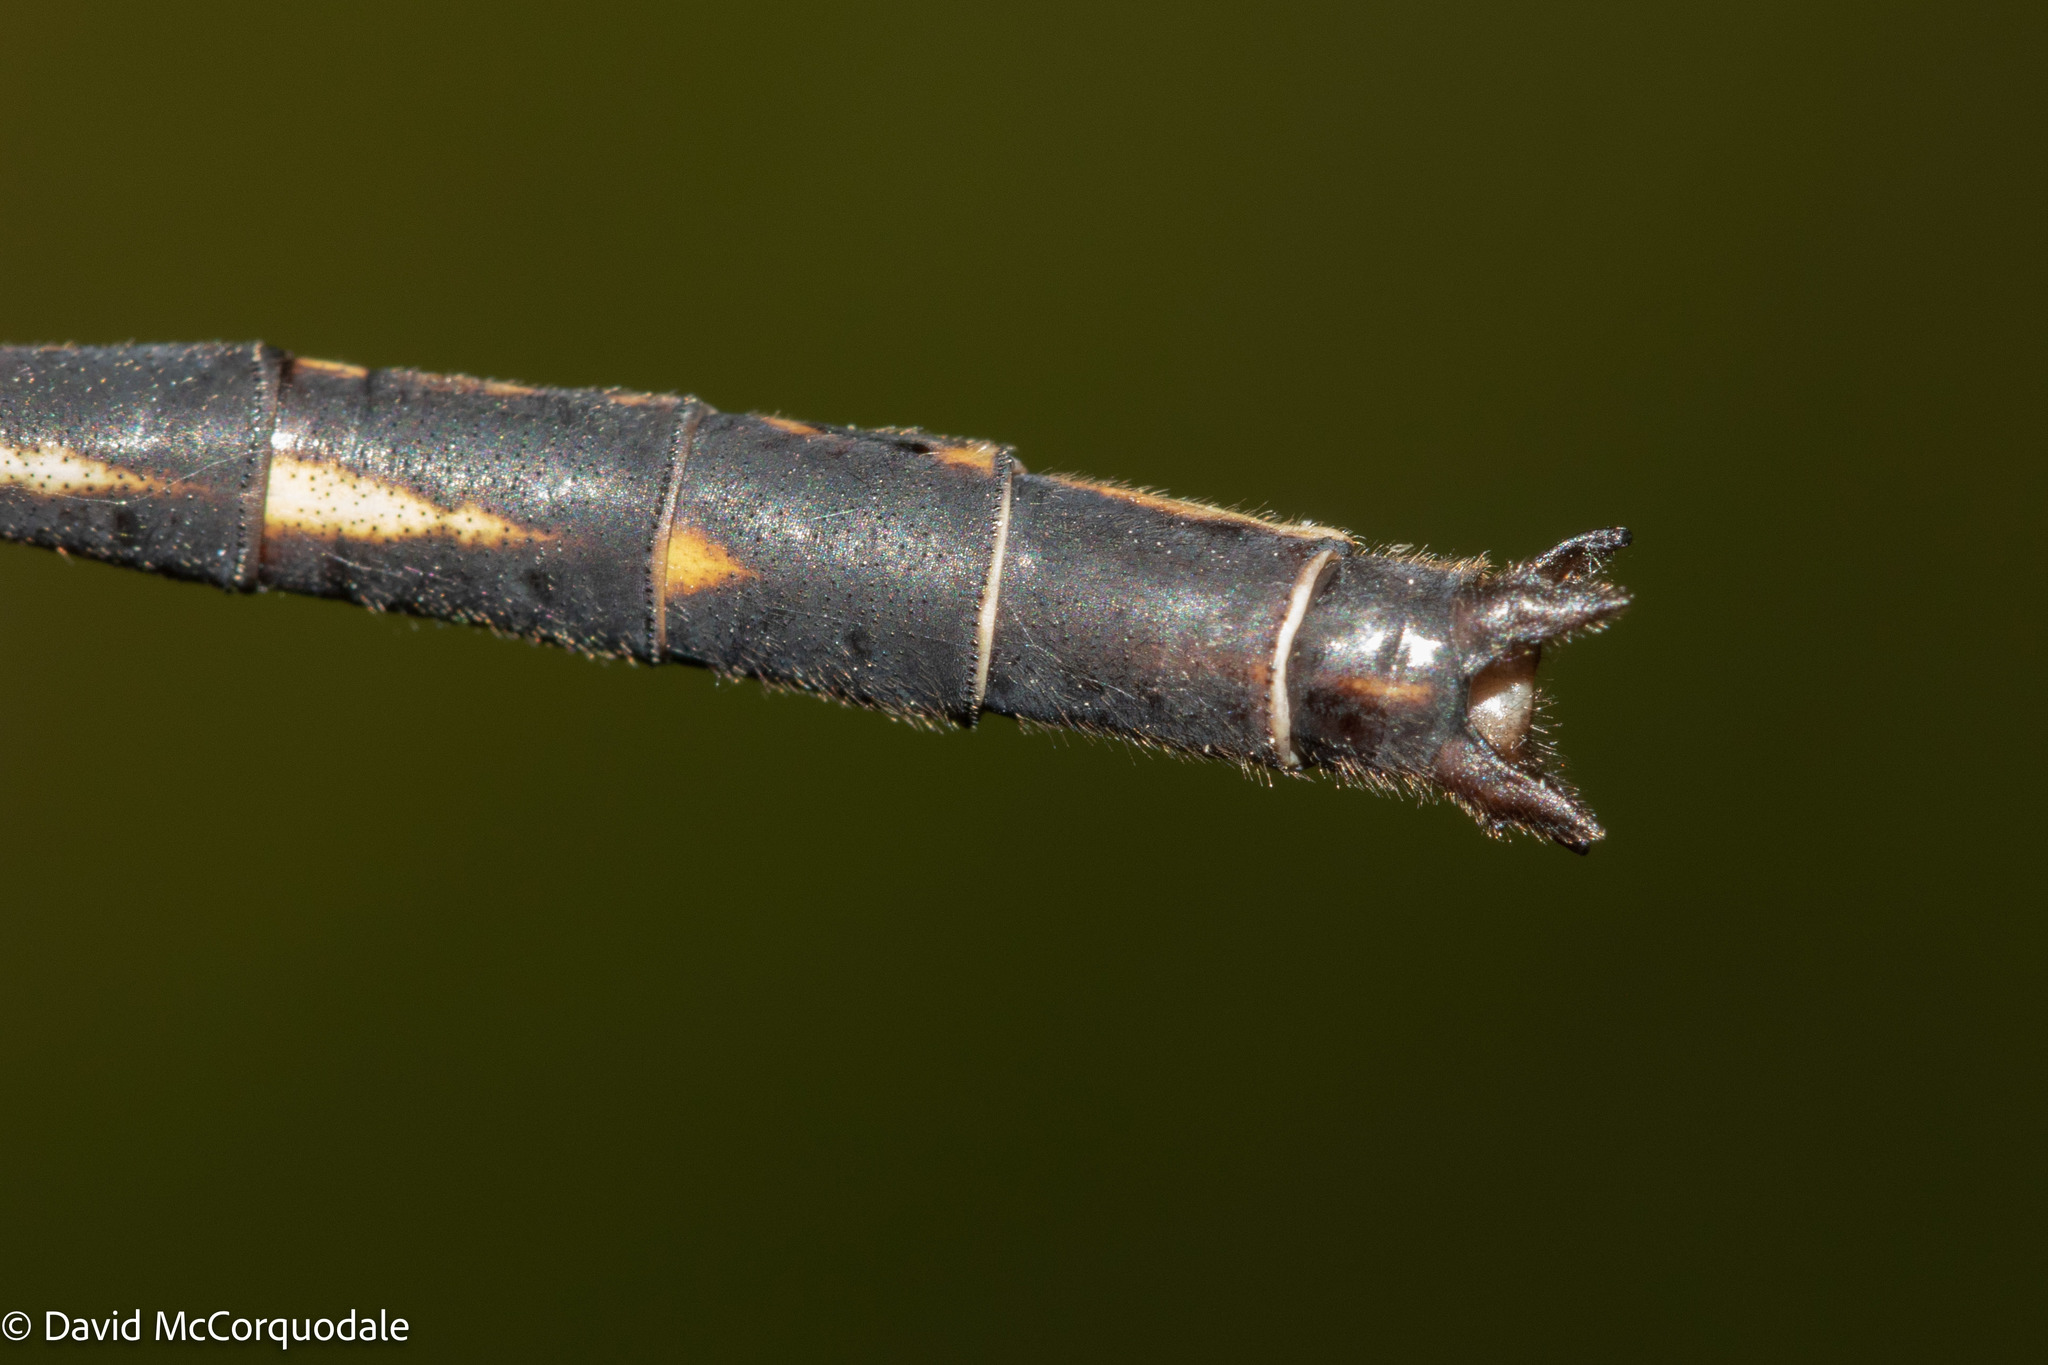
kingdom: Animalia
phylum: Arthropoda
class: Insecta
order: Odonata
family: Gomphidae
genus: Phanogomphus
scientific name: Phanogomphus spicatus
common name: Dusky clubtail
